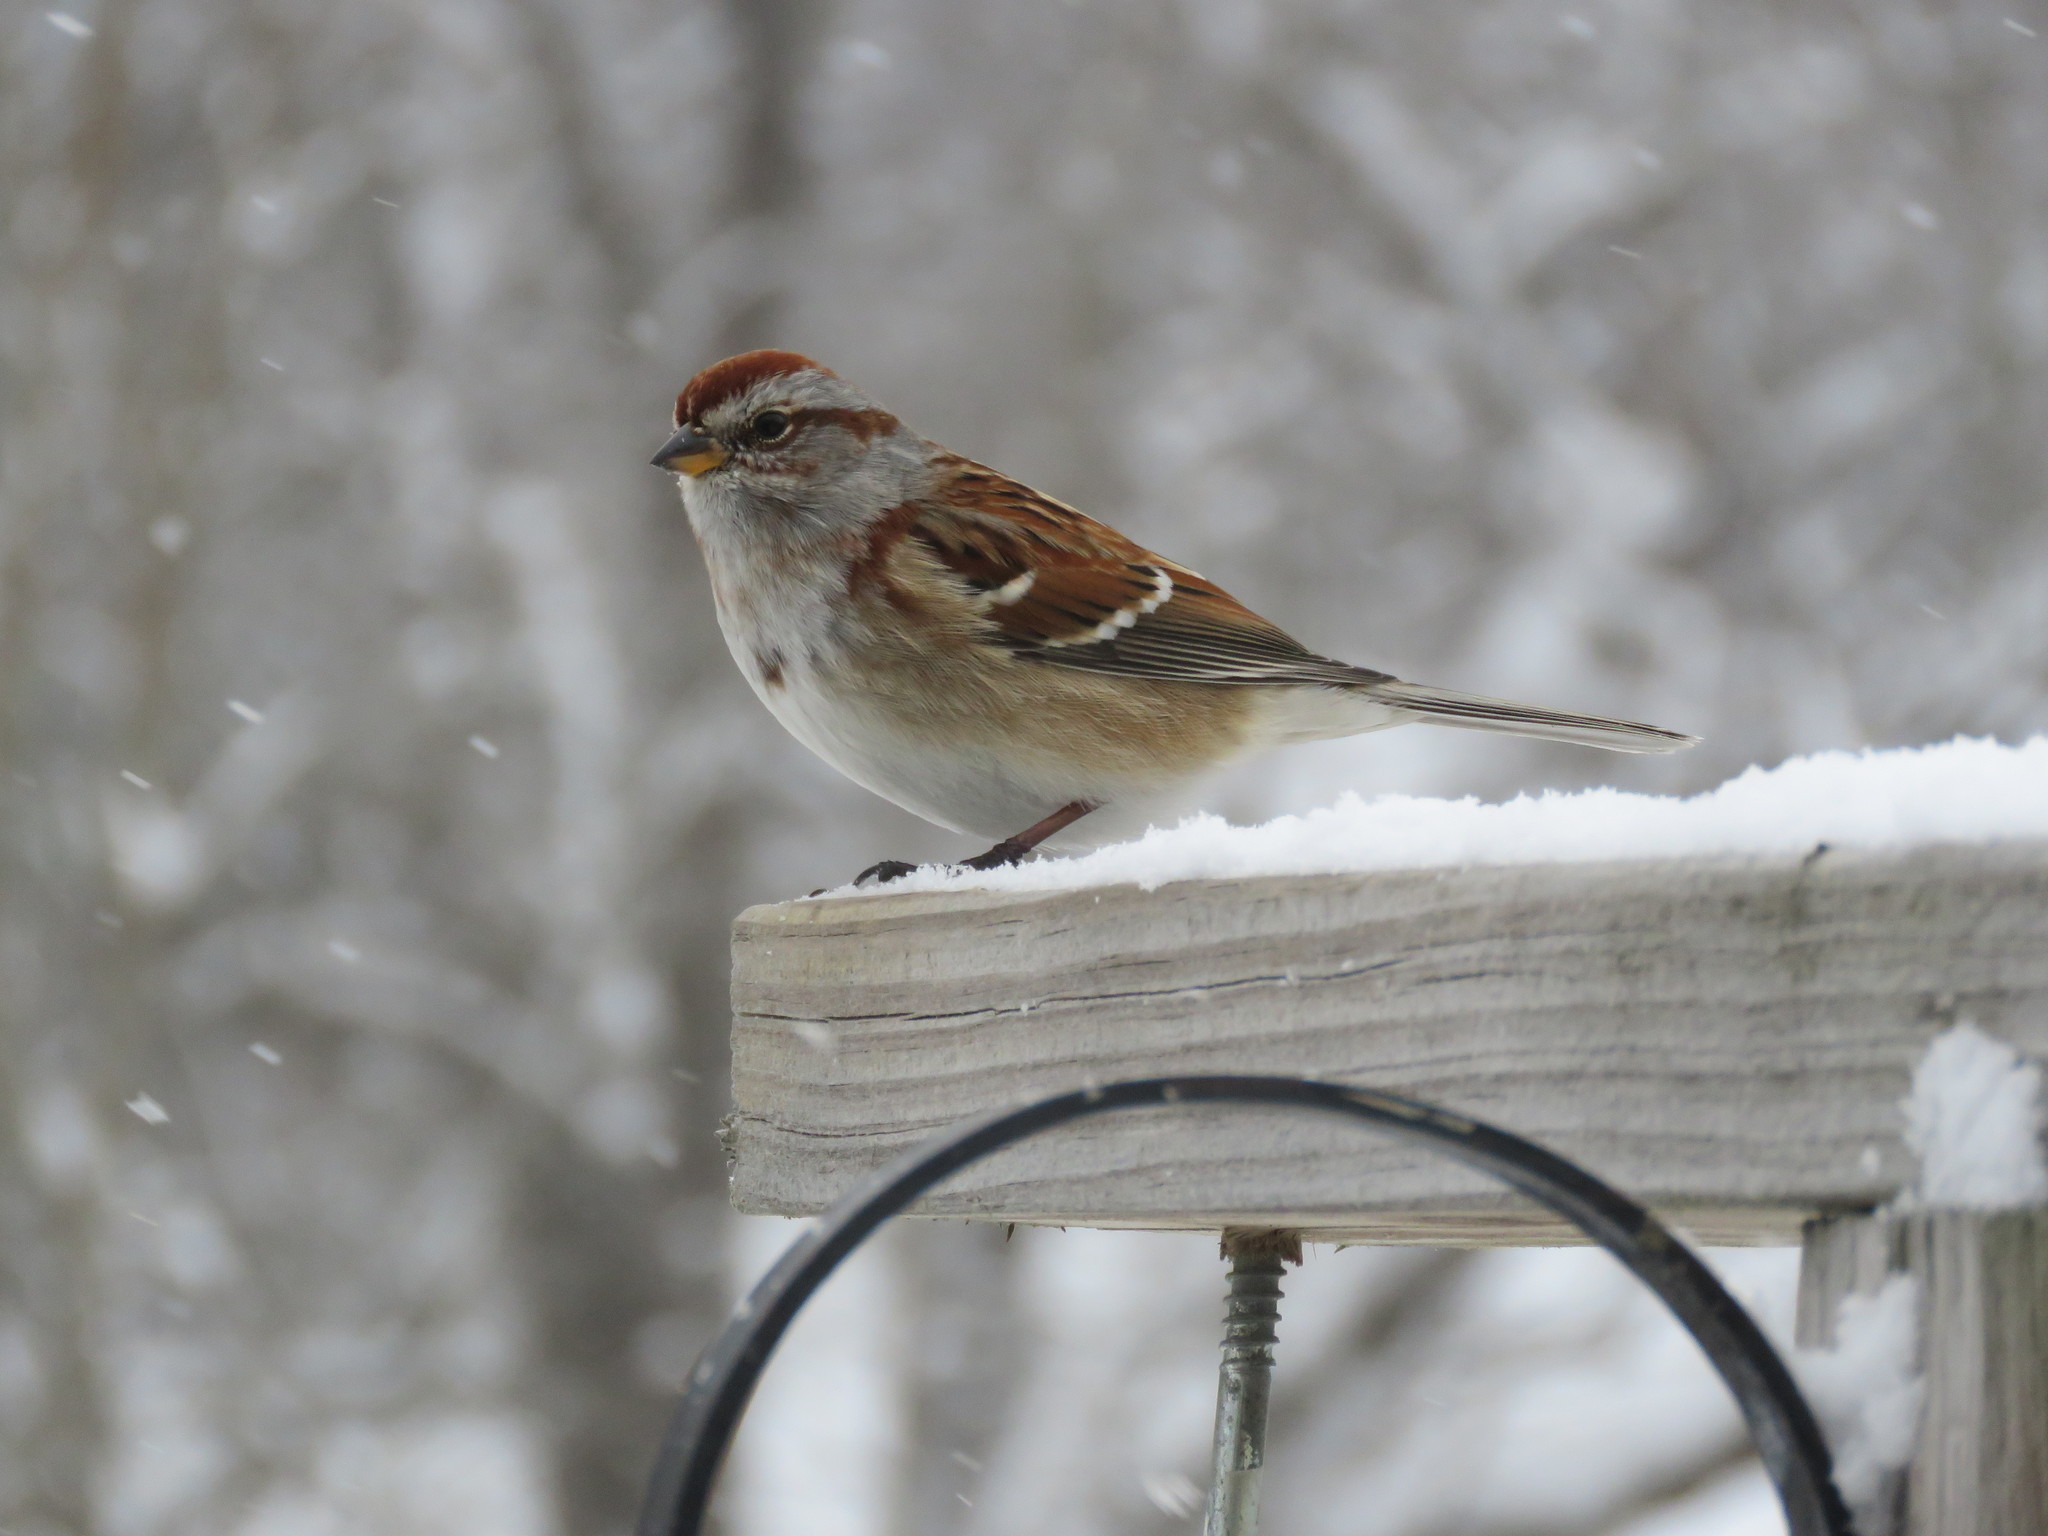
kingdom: Animalia
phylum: Chordata
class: Aves
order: Passeriformes
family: Passerellidae
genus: Spizelloides
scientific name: Spizelloides arborea
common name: American tree sparrow
